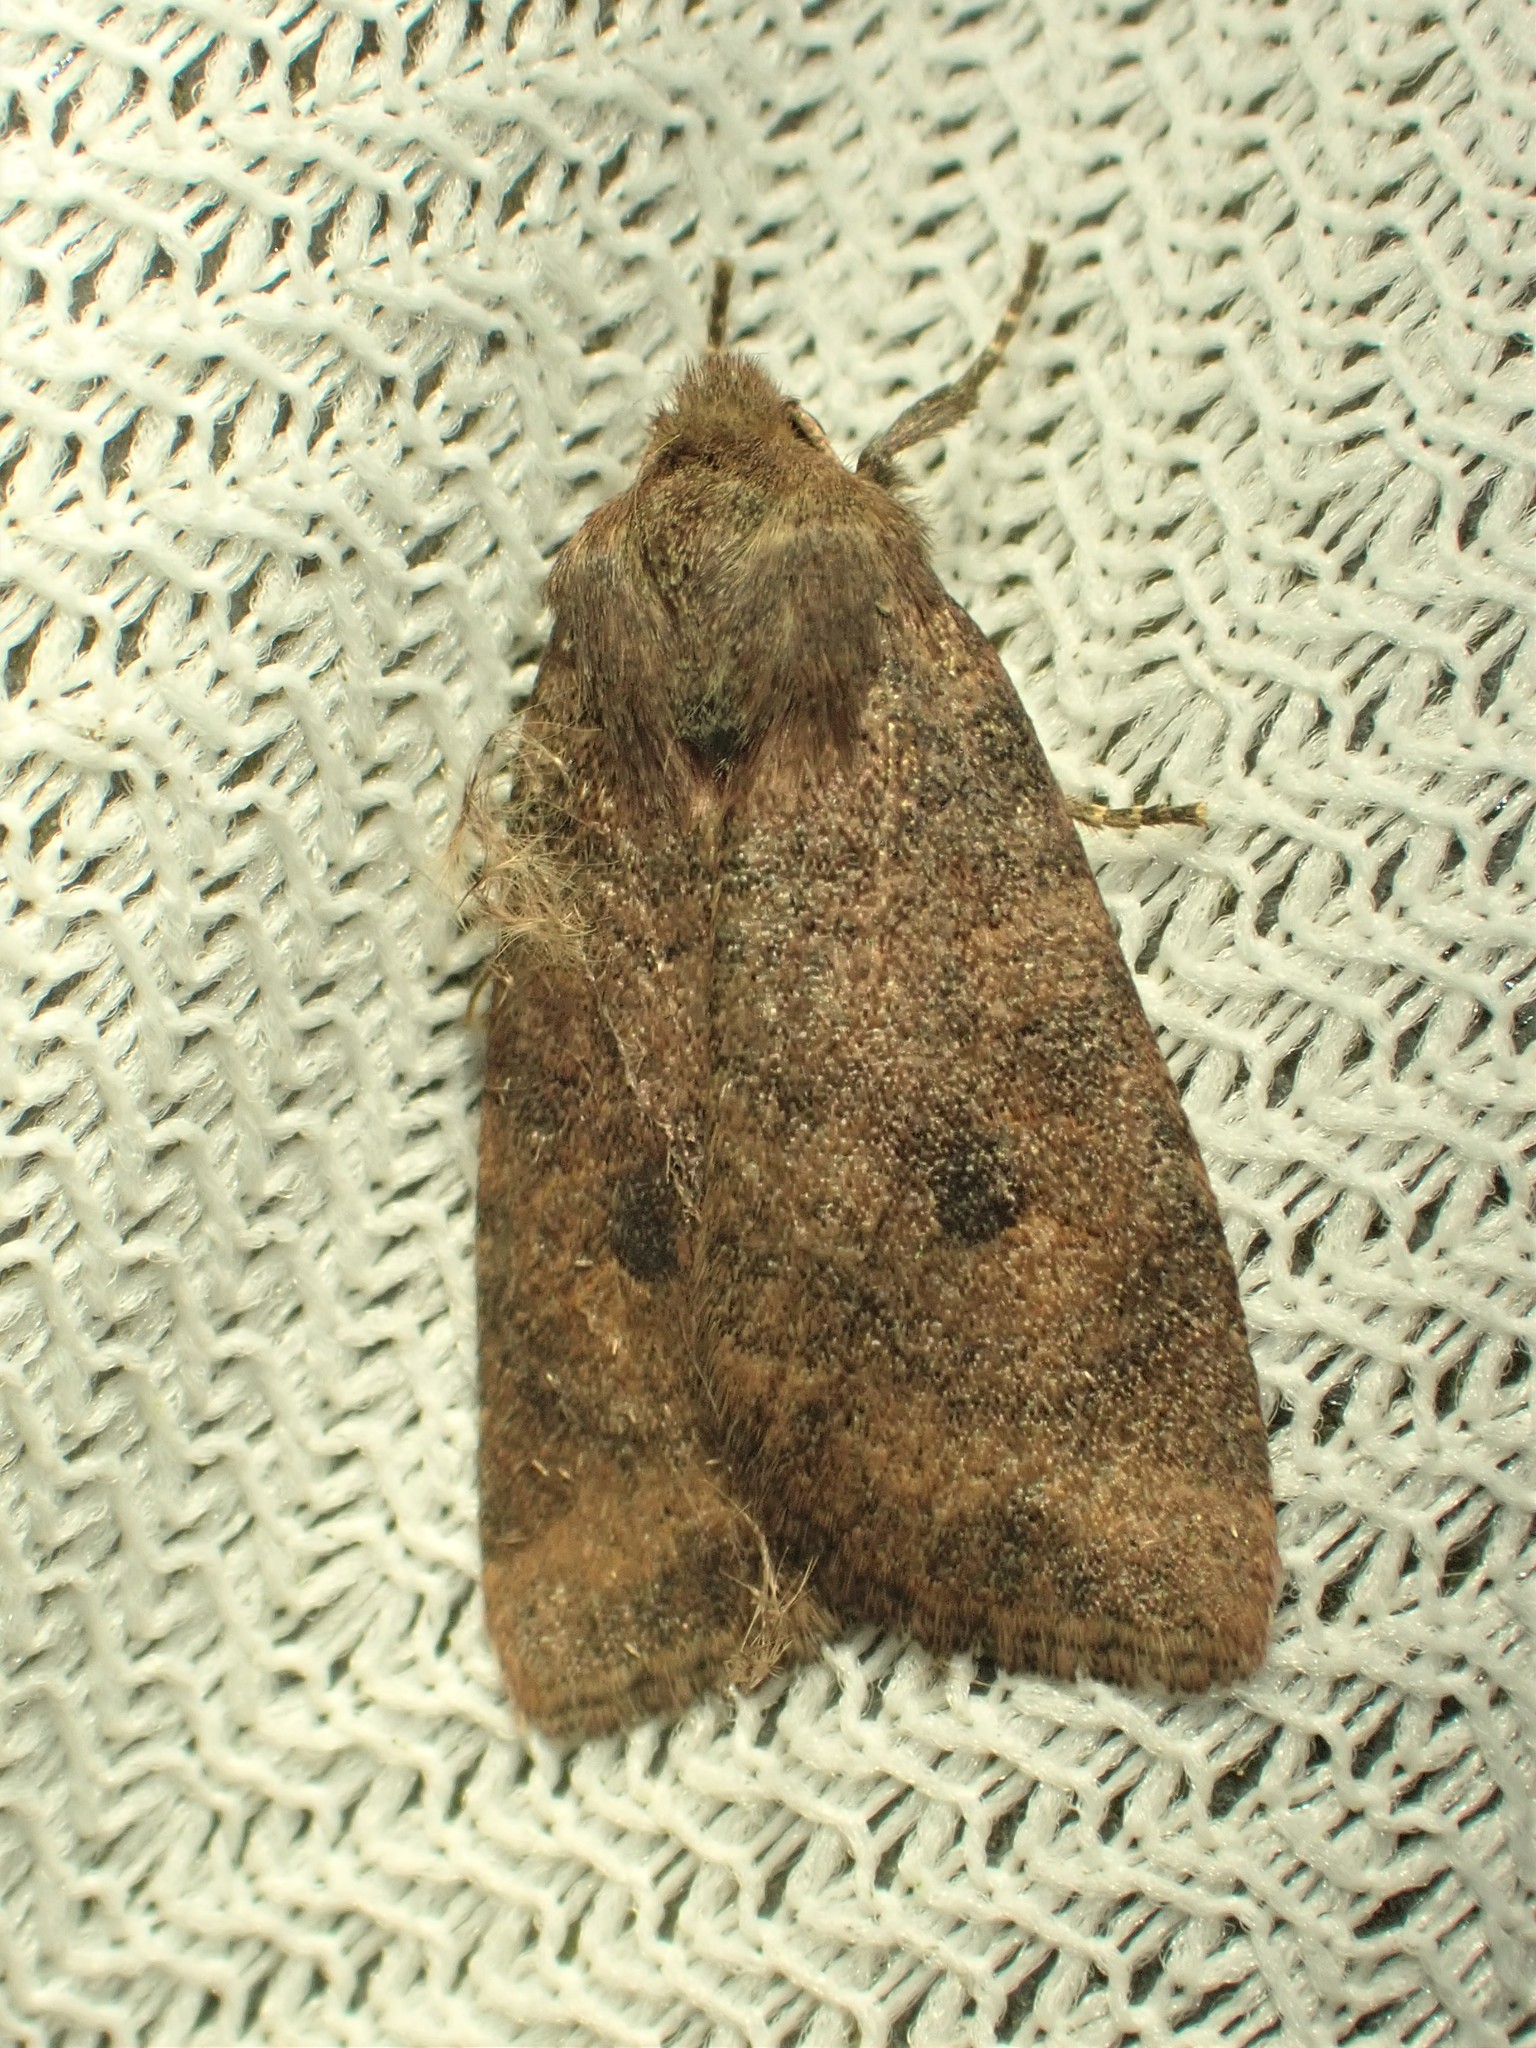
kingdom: Animalia
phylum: Arthropoda
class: Insecta
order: Lepidoptera
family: Noctuidae
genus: Anathix
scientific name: Anathix puta
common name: Puta sallow
